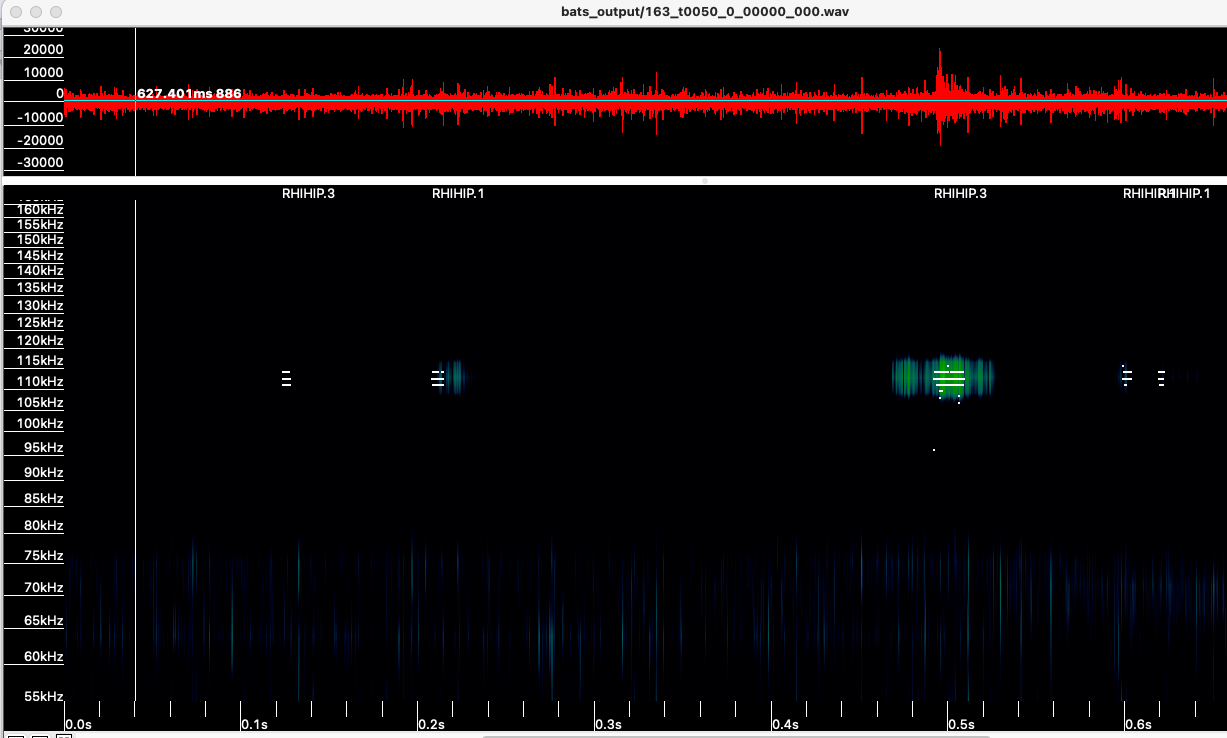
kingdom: Animalia
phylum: Chordata
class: Mammalia
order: Chiroptera
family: Rhinolophidae
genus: Rhinolophus
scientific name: Rhinolophus hipposideros
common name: Lesser horseshoe bat
